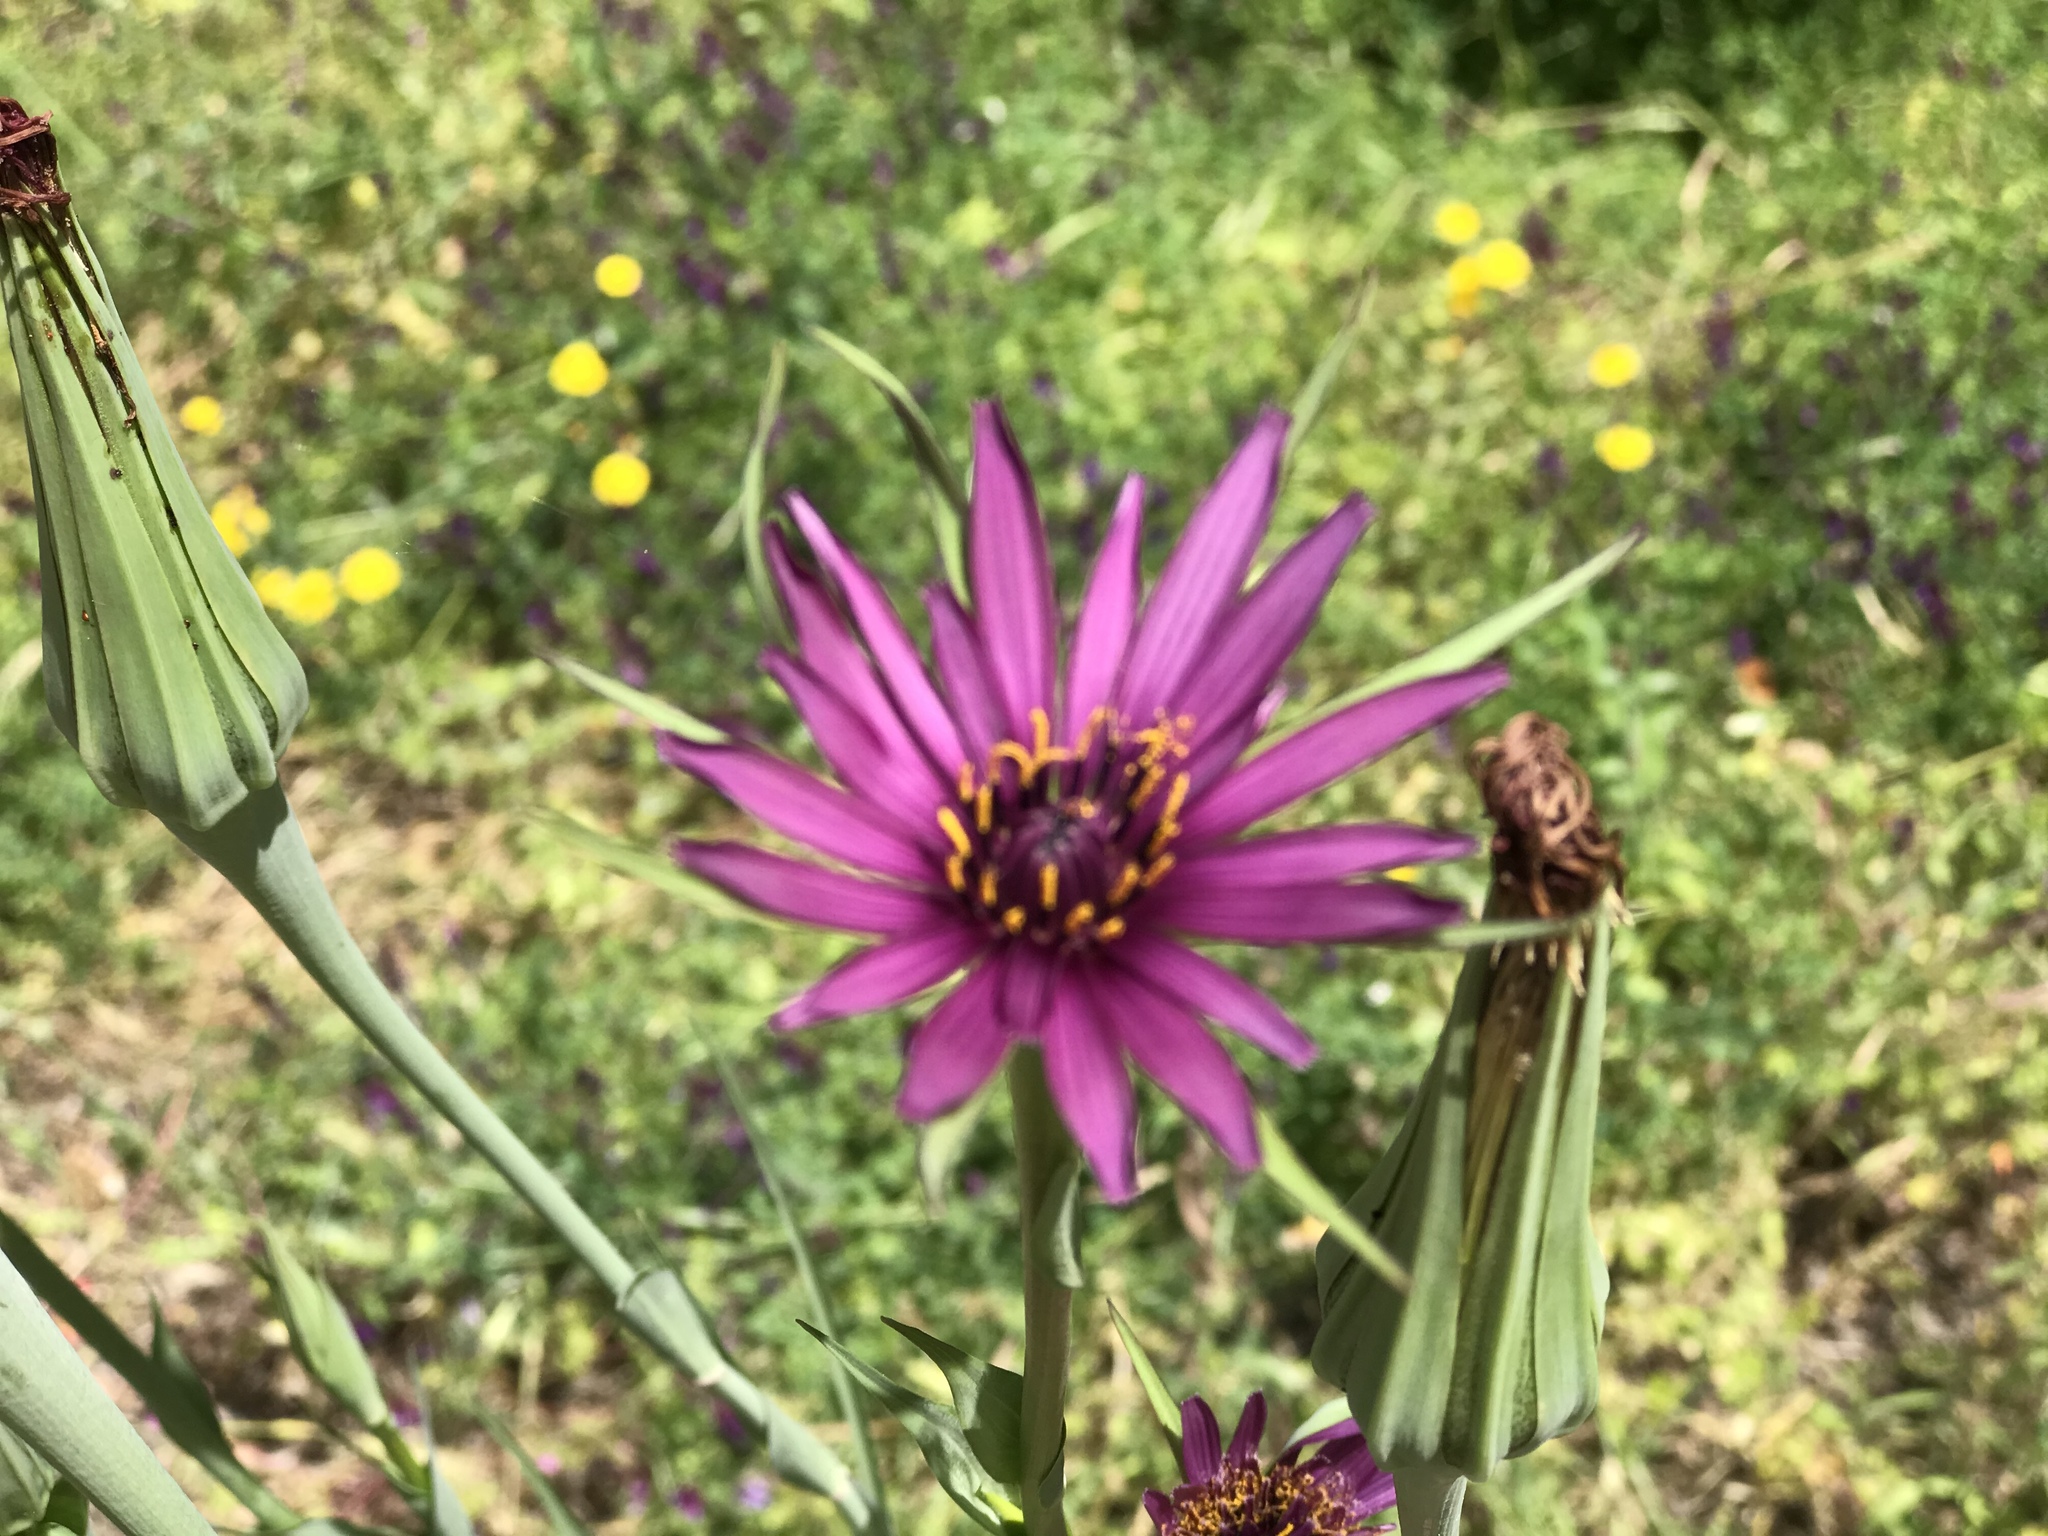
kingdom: Plantae
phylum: Tracheophyta
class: Magnoliopsida
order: Asterales
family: Asteraceae
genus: Tragopogon
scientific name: Tragopogon porrifolius
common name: Salsify
